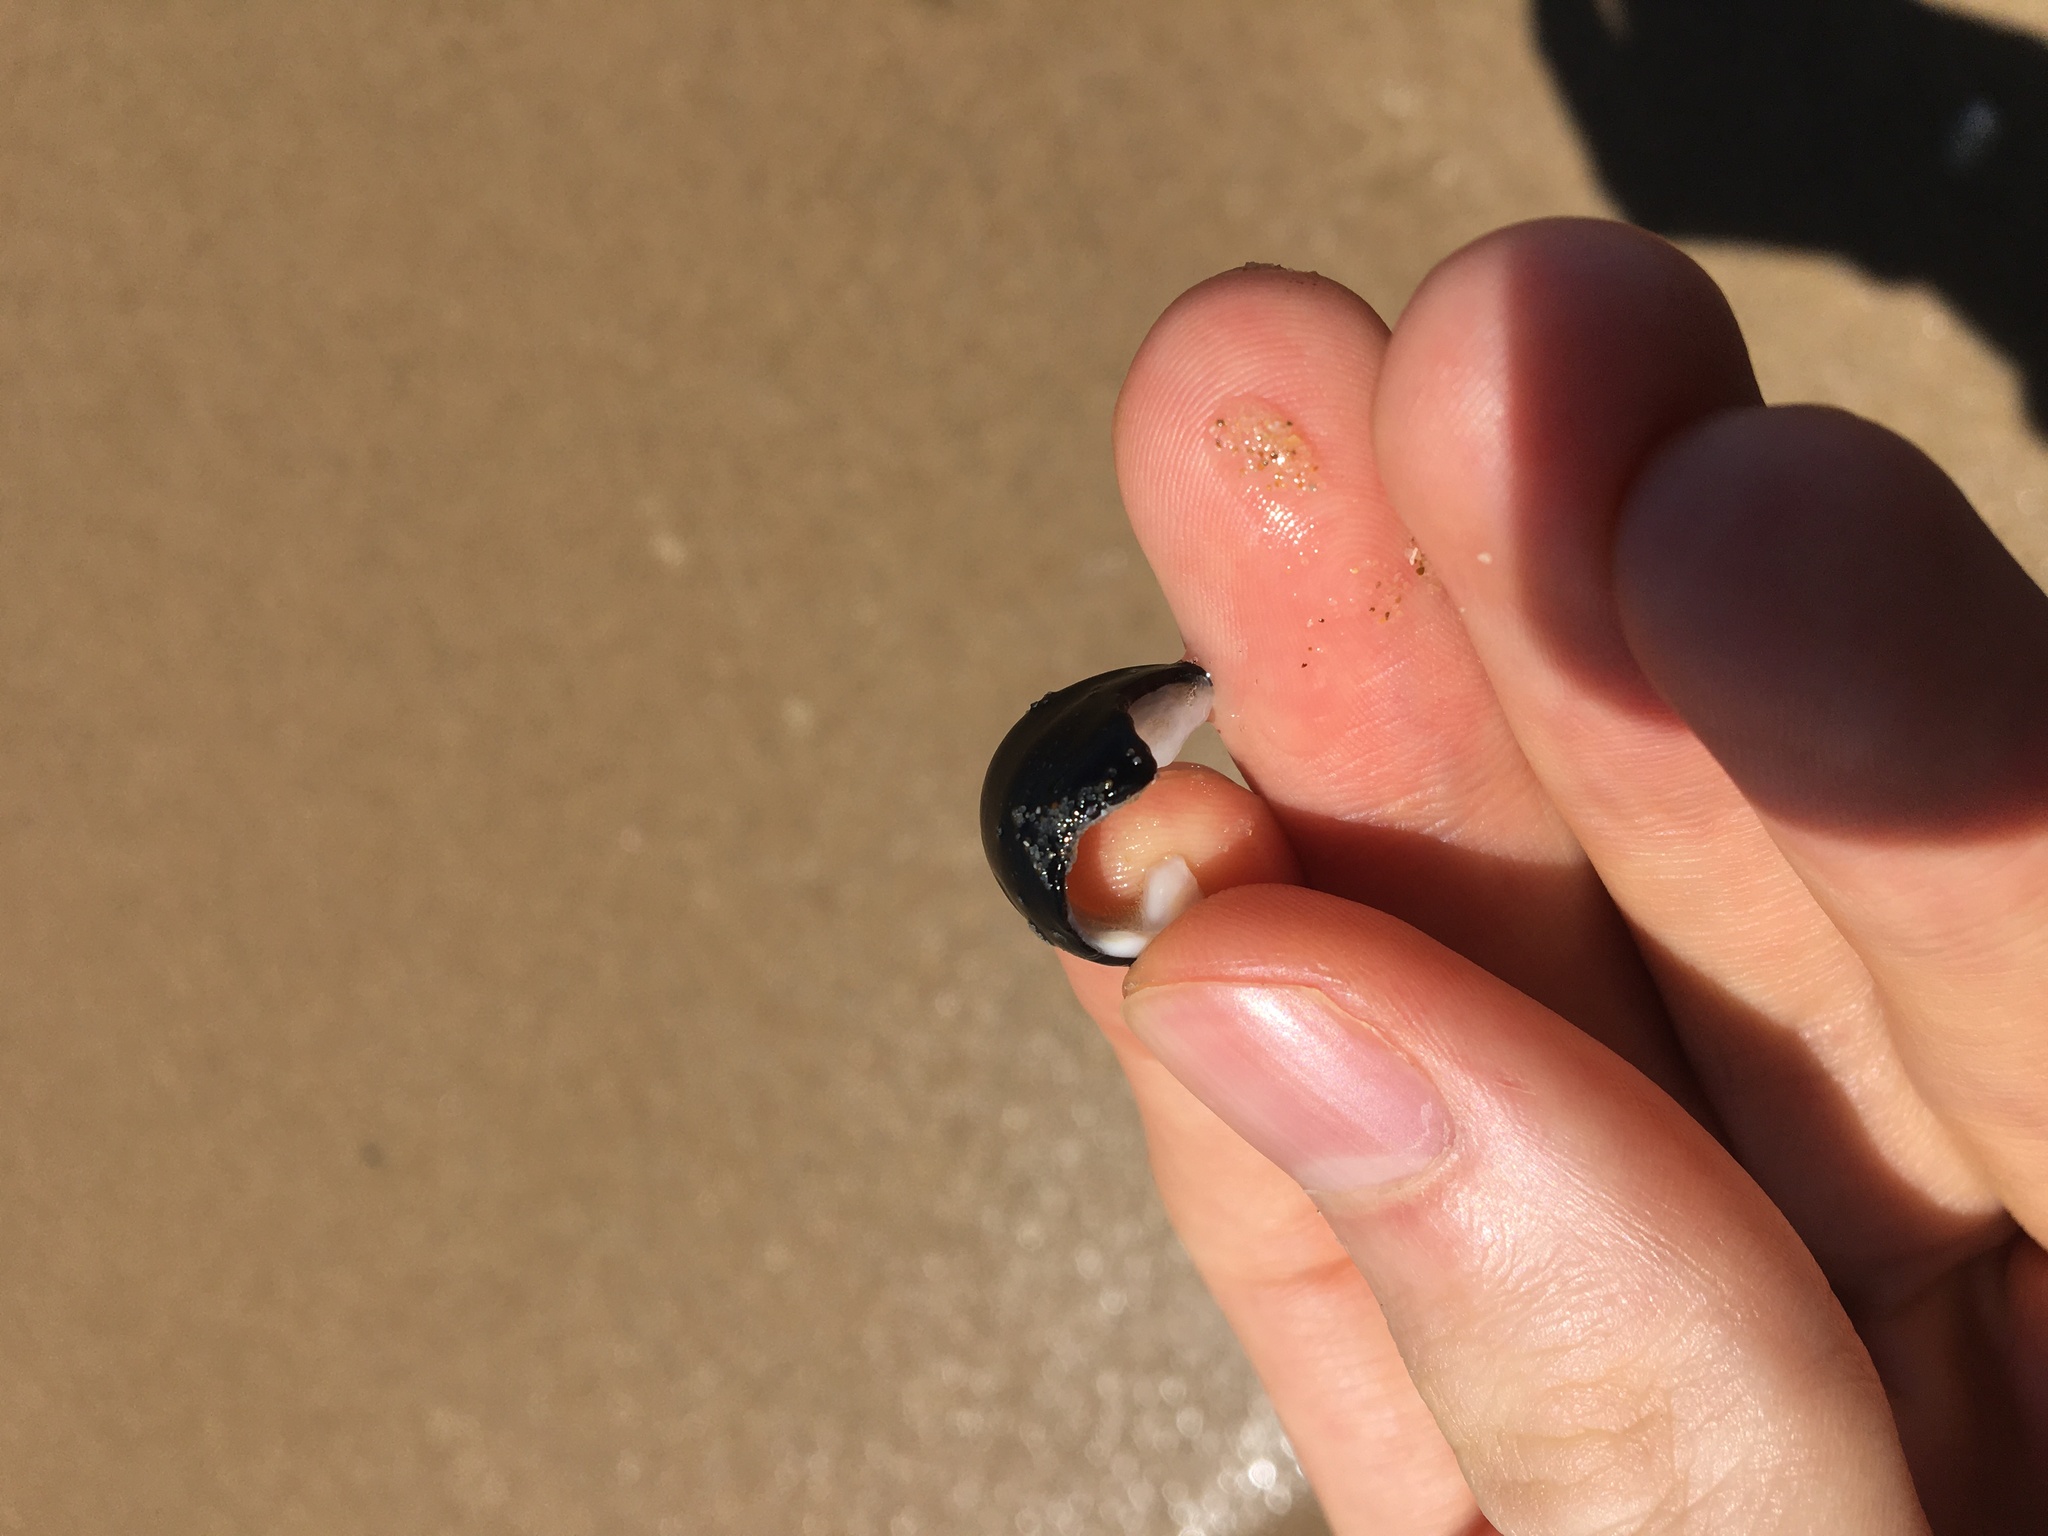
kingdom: Animalia
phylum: Mollusca
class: Gastropoda
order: Cycloneritida
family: Neritidae
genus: Nerita
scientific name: Nerita melanotragus
